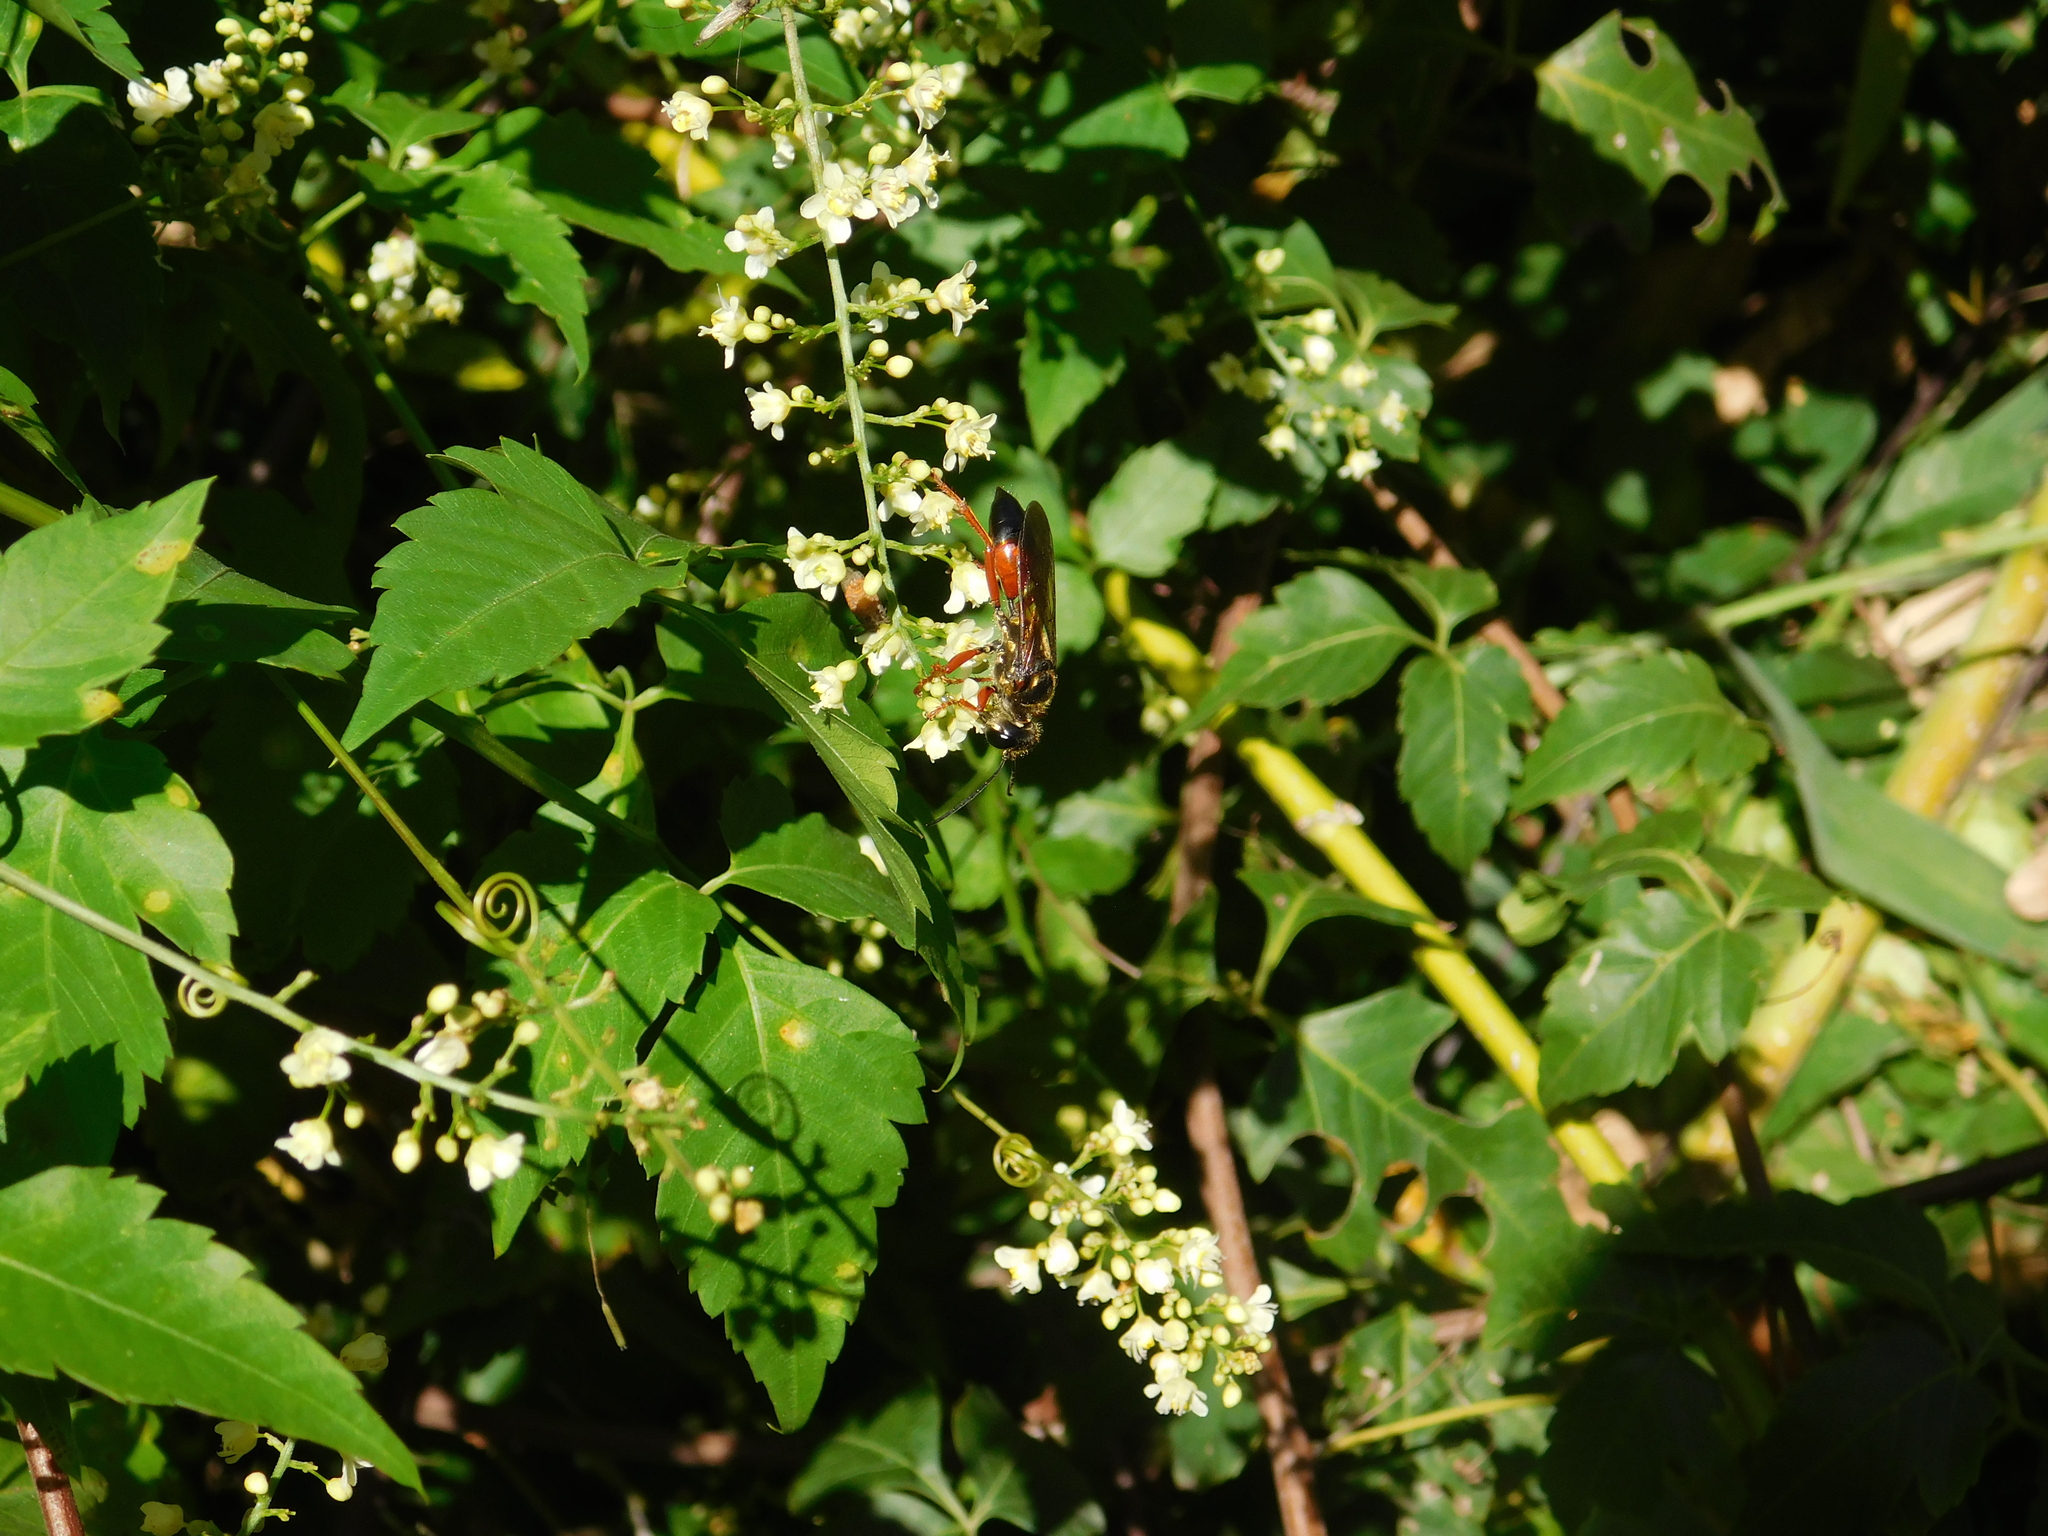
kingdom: Animalia
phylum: Arthropoda
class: Insecta
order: Hymenoptera
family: Sphecidae
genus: Sphex
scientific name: Sphex ichneumoneus
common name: Great golden digger wasp
